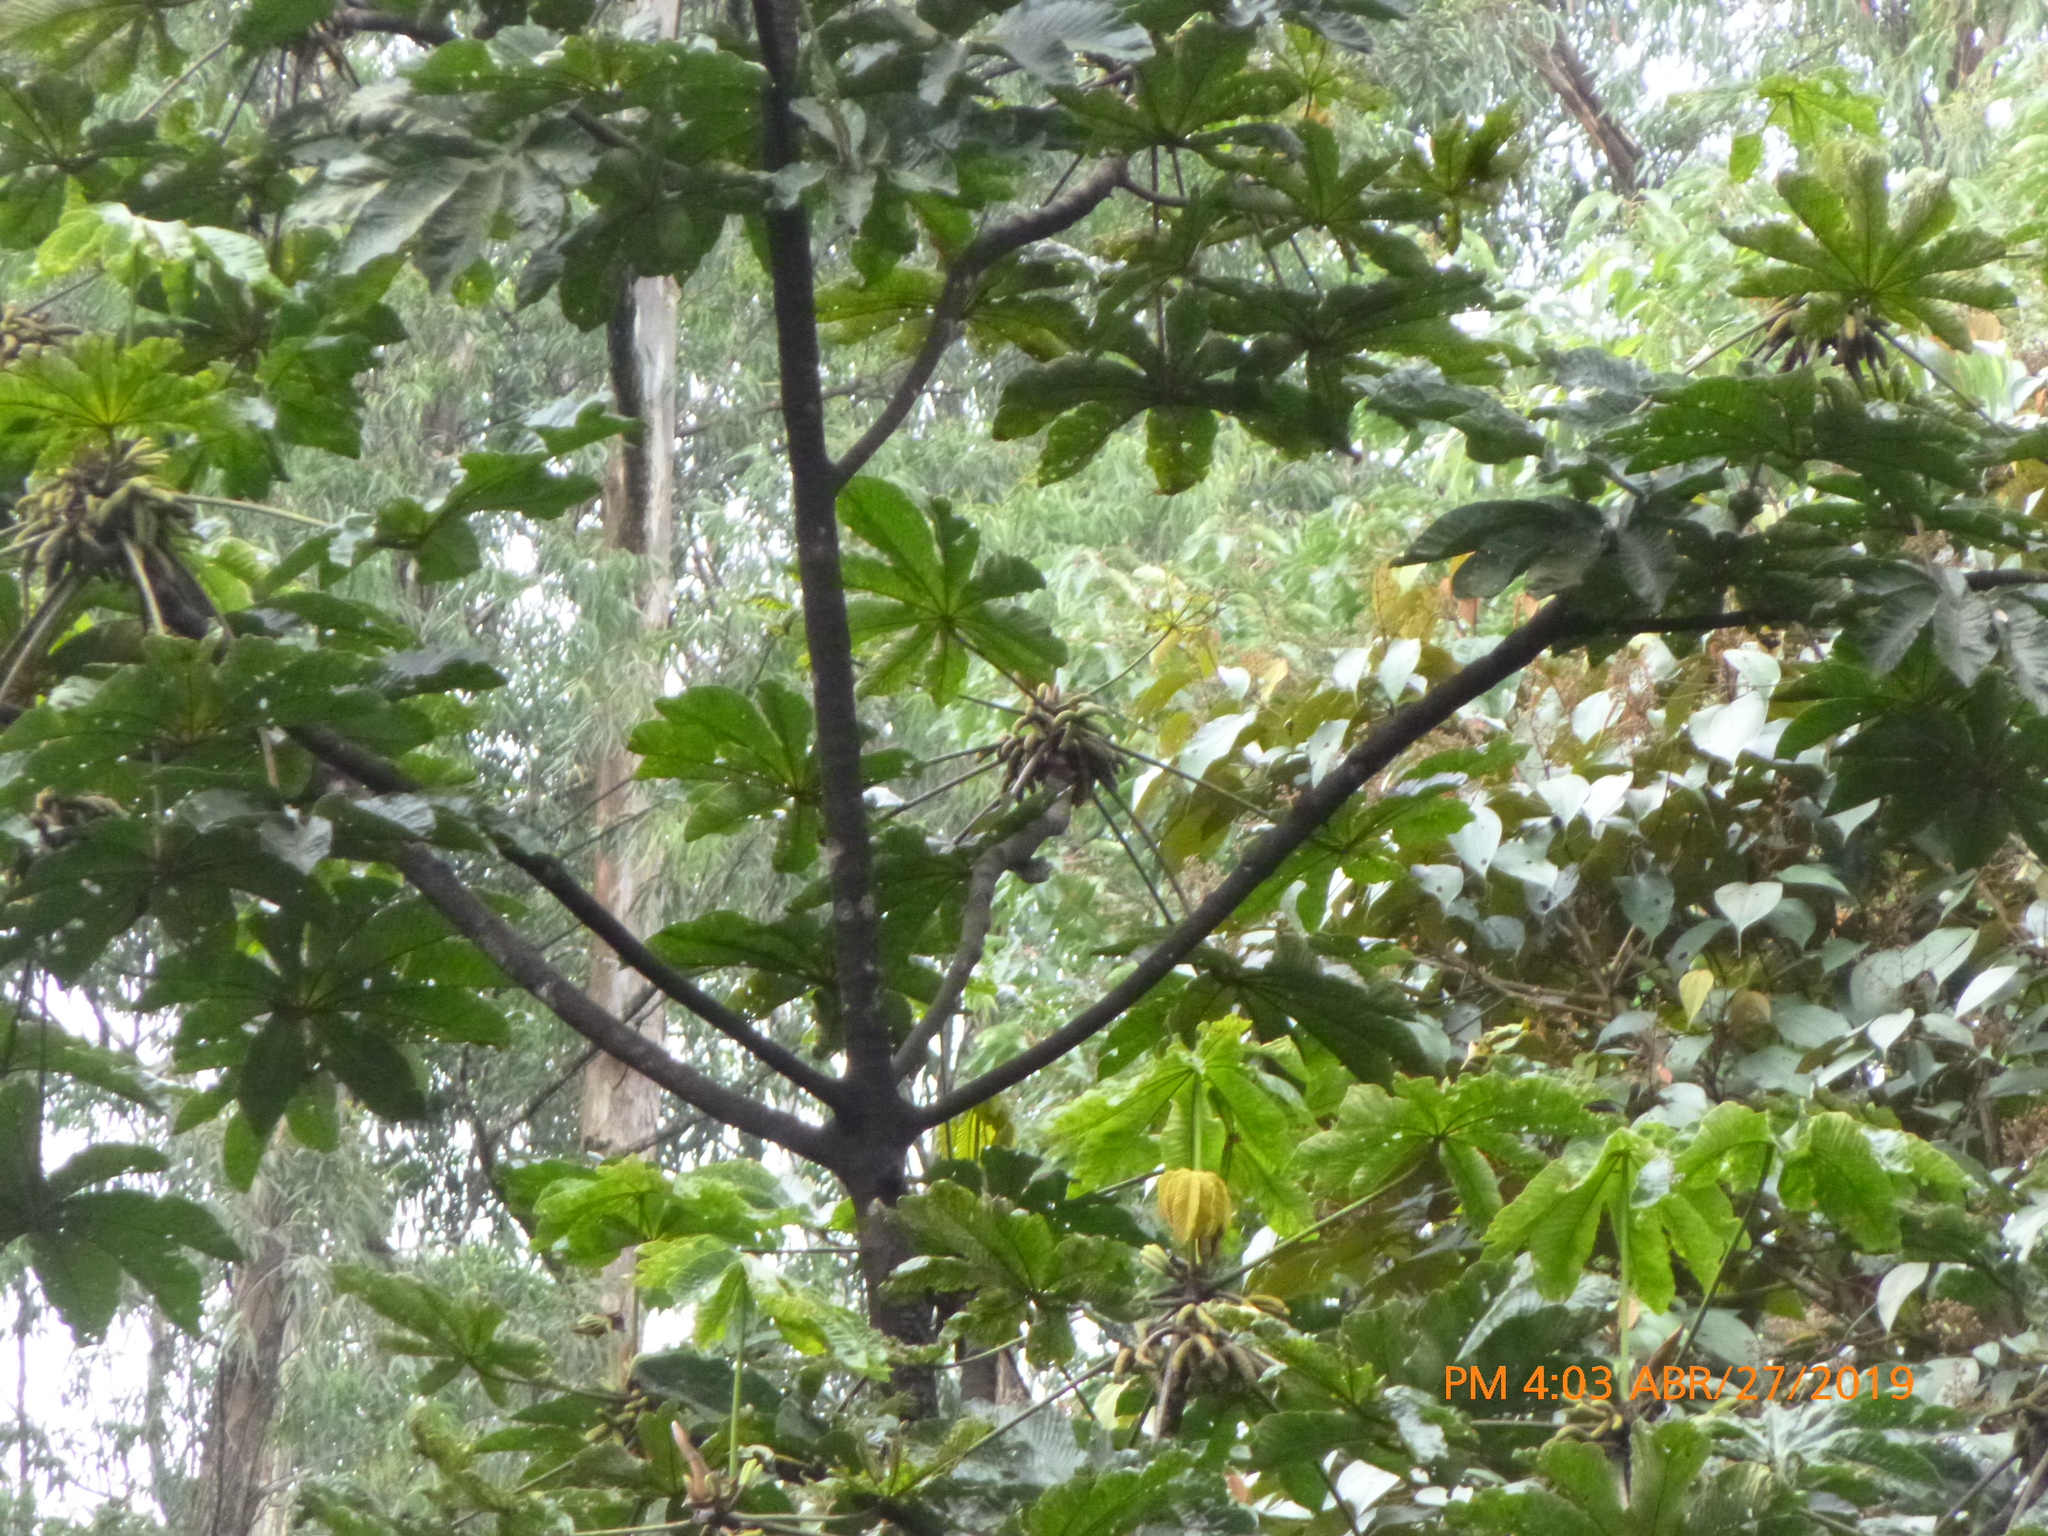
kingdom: Plantae
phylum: Tracheophyta
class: Magnoliopsida
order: Rosales
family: Urticaceae
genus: Cecropia
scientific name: Cecropia angustifolia
